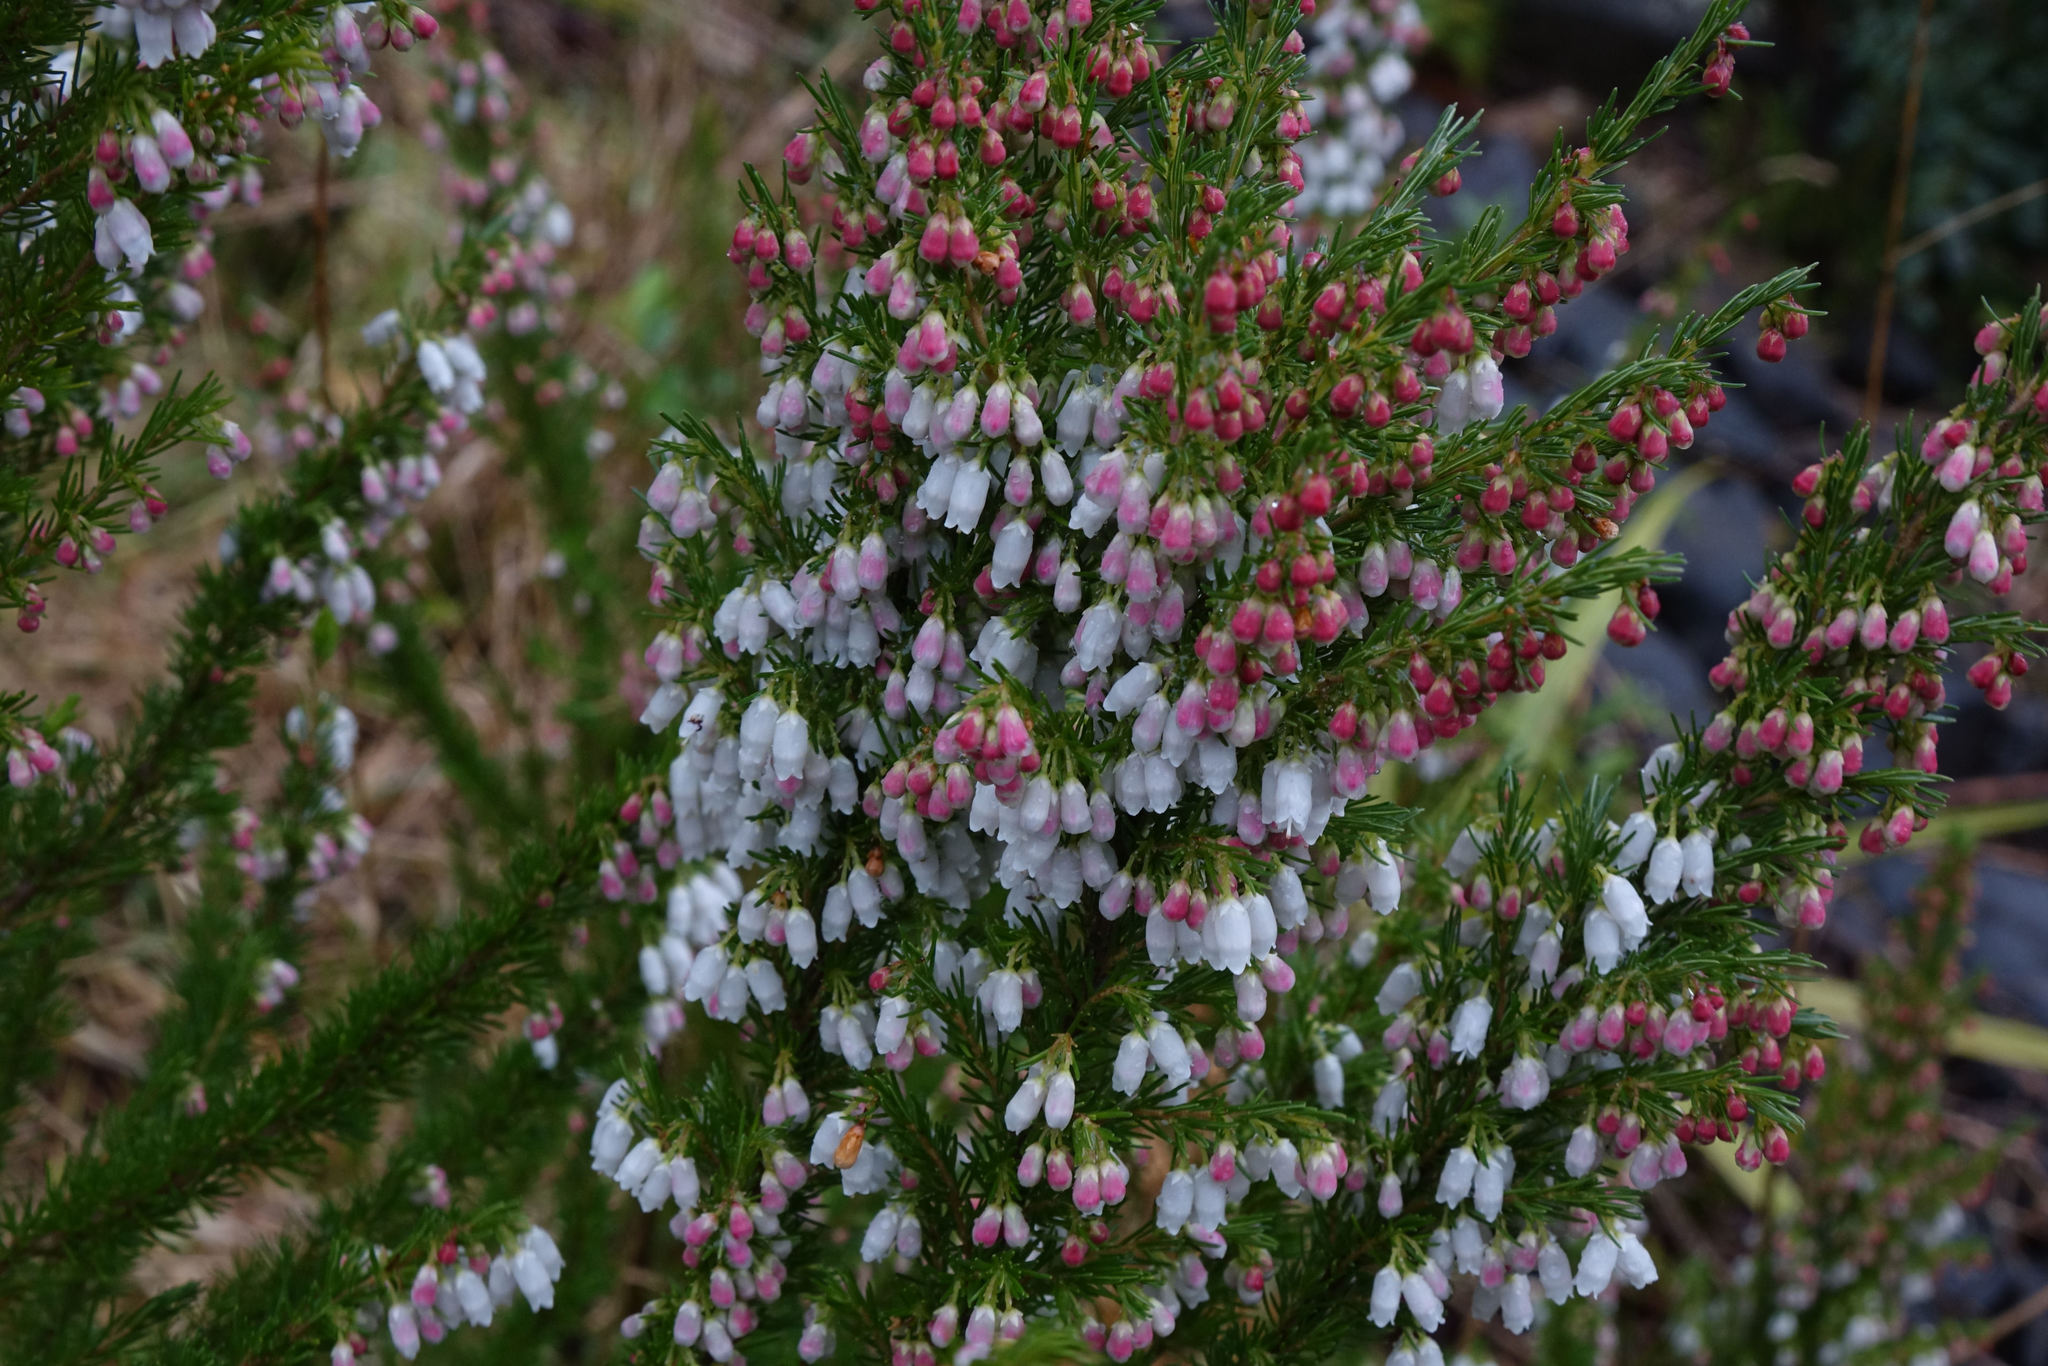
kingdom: Plantae
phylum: Tracheophyta
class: Magnoliopsida
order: Ericales
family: Ericaceae
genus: Erica
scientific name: Erica lusitanica
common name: Spanish heath
